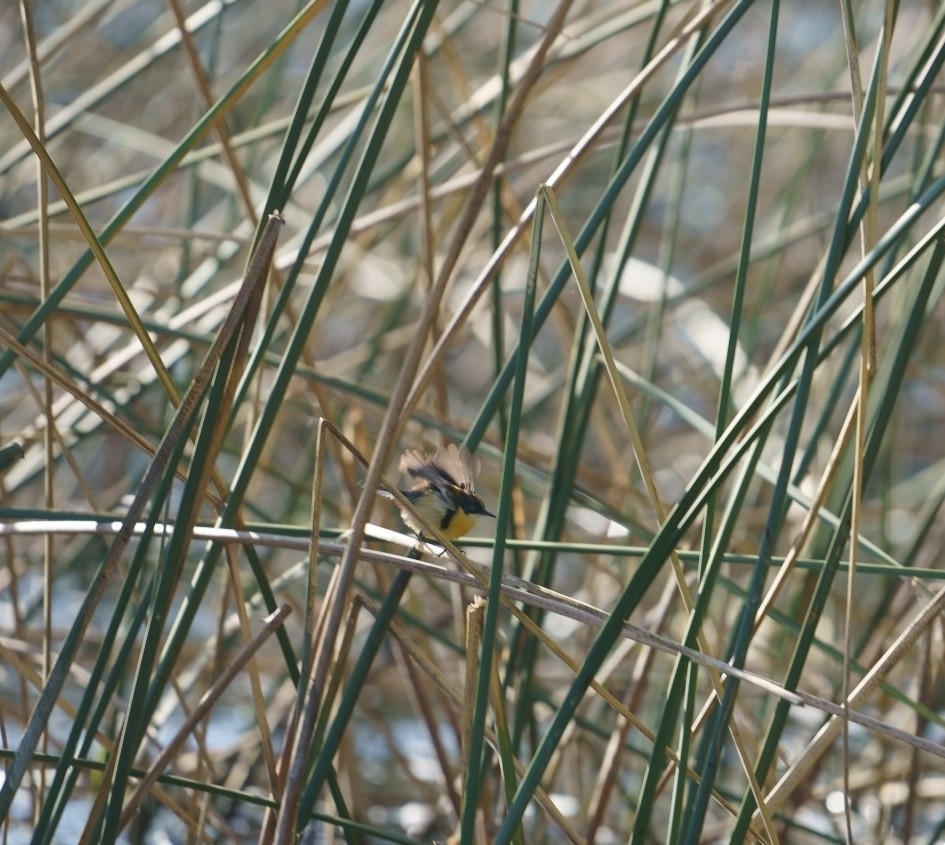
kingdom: Animalia
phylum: Chordata
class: Aves
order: Passeriformes
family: Tyrannidae
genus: Tachuris
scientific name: Tachuris rubrigastra
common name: Many-colored rush tyrant
